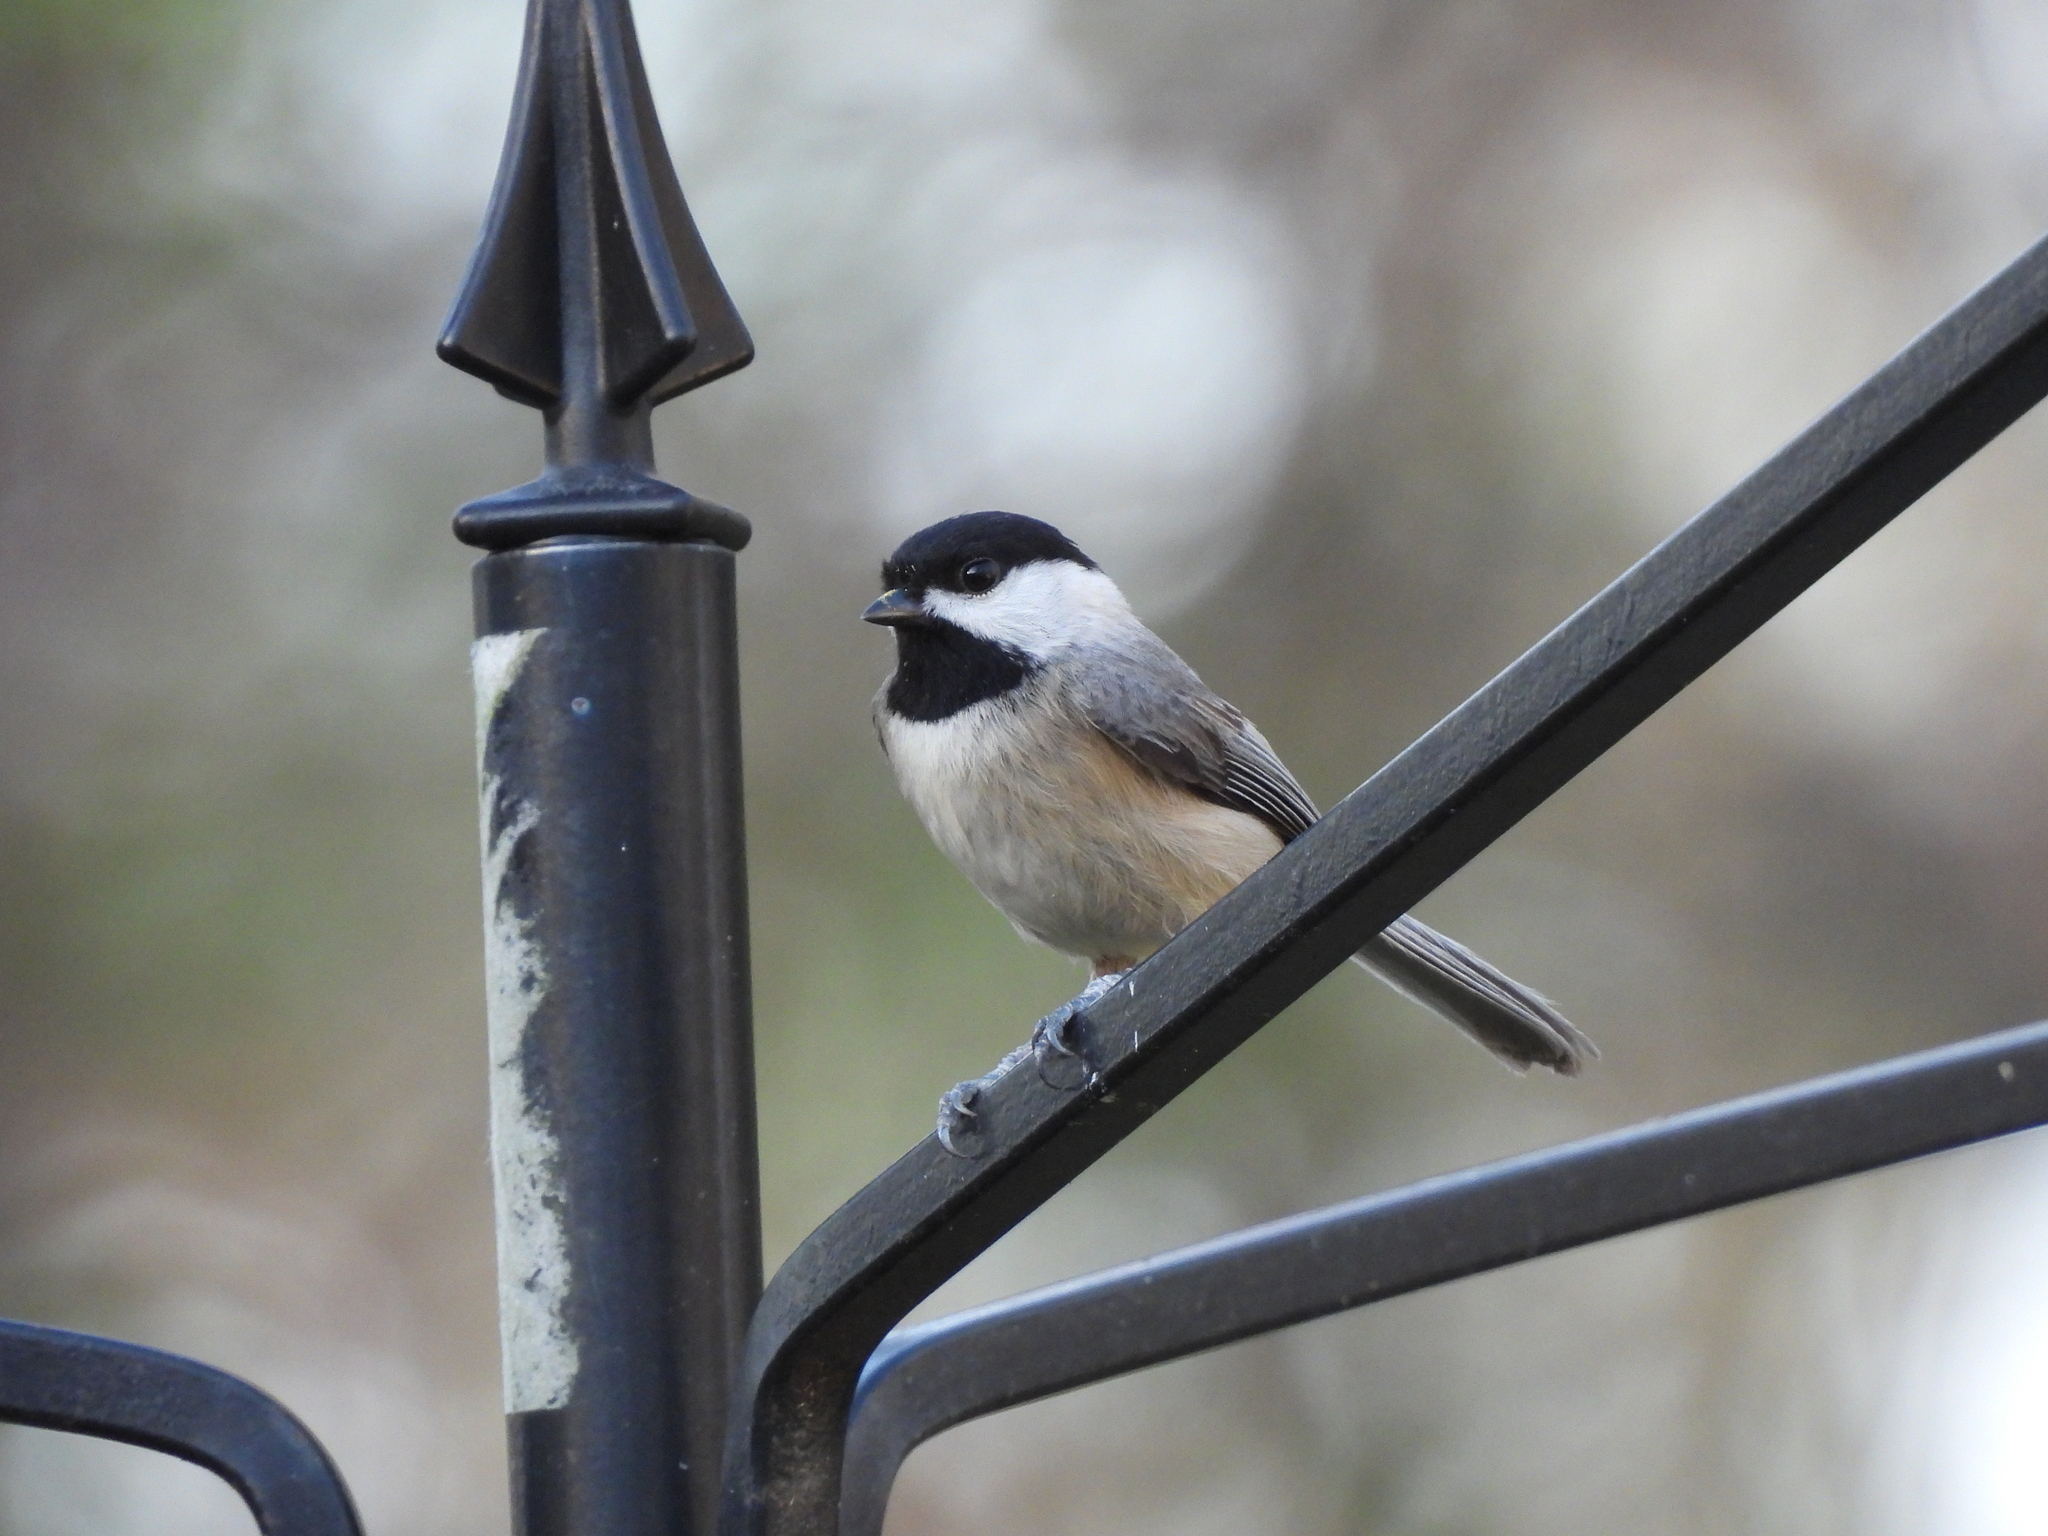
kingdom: Animalia
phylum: Chordata
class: Aves
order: Passeriformes
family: Paridae
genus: Poecile
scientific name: Poecile carolinensis
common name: Carolina chickadee
